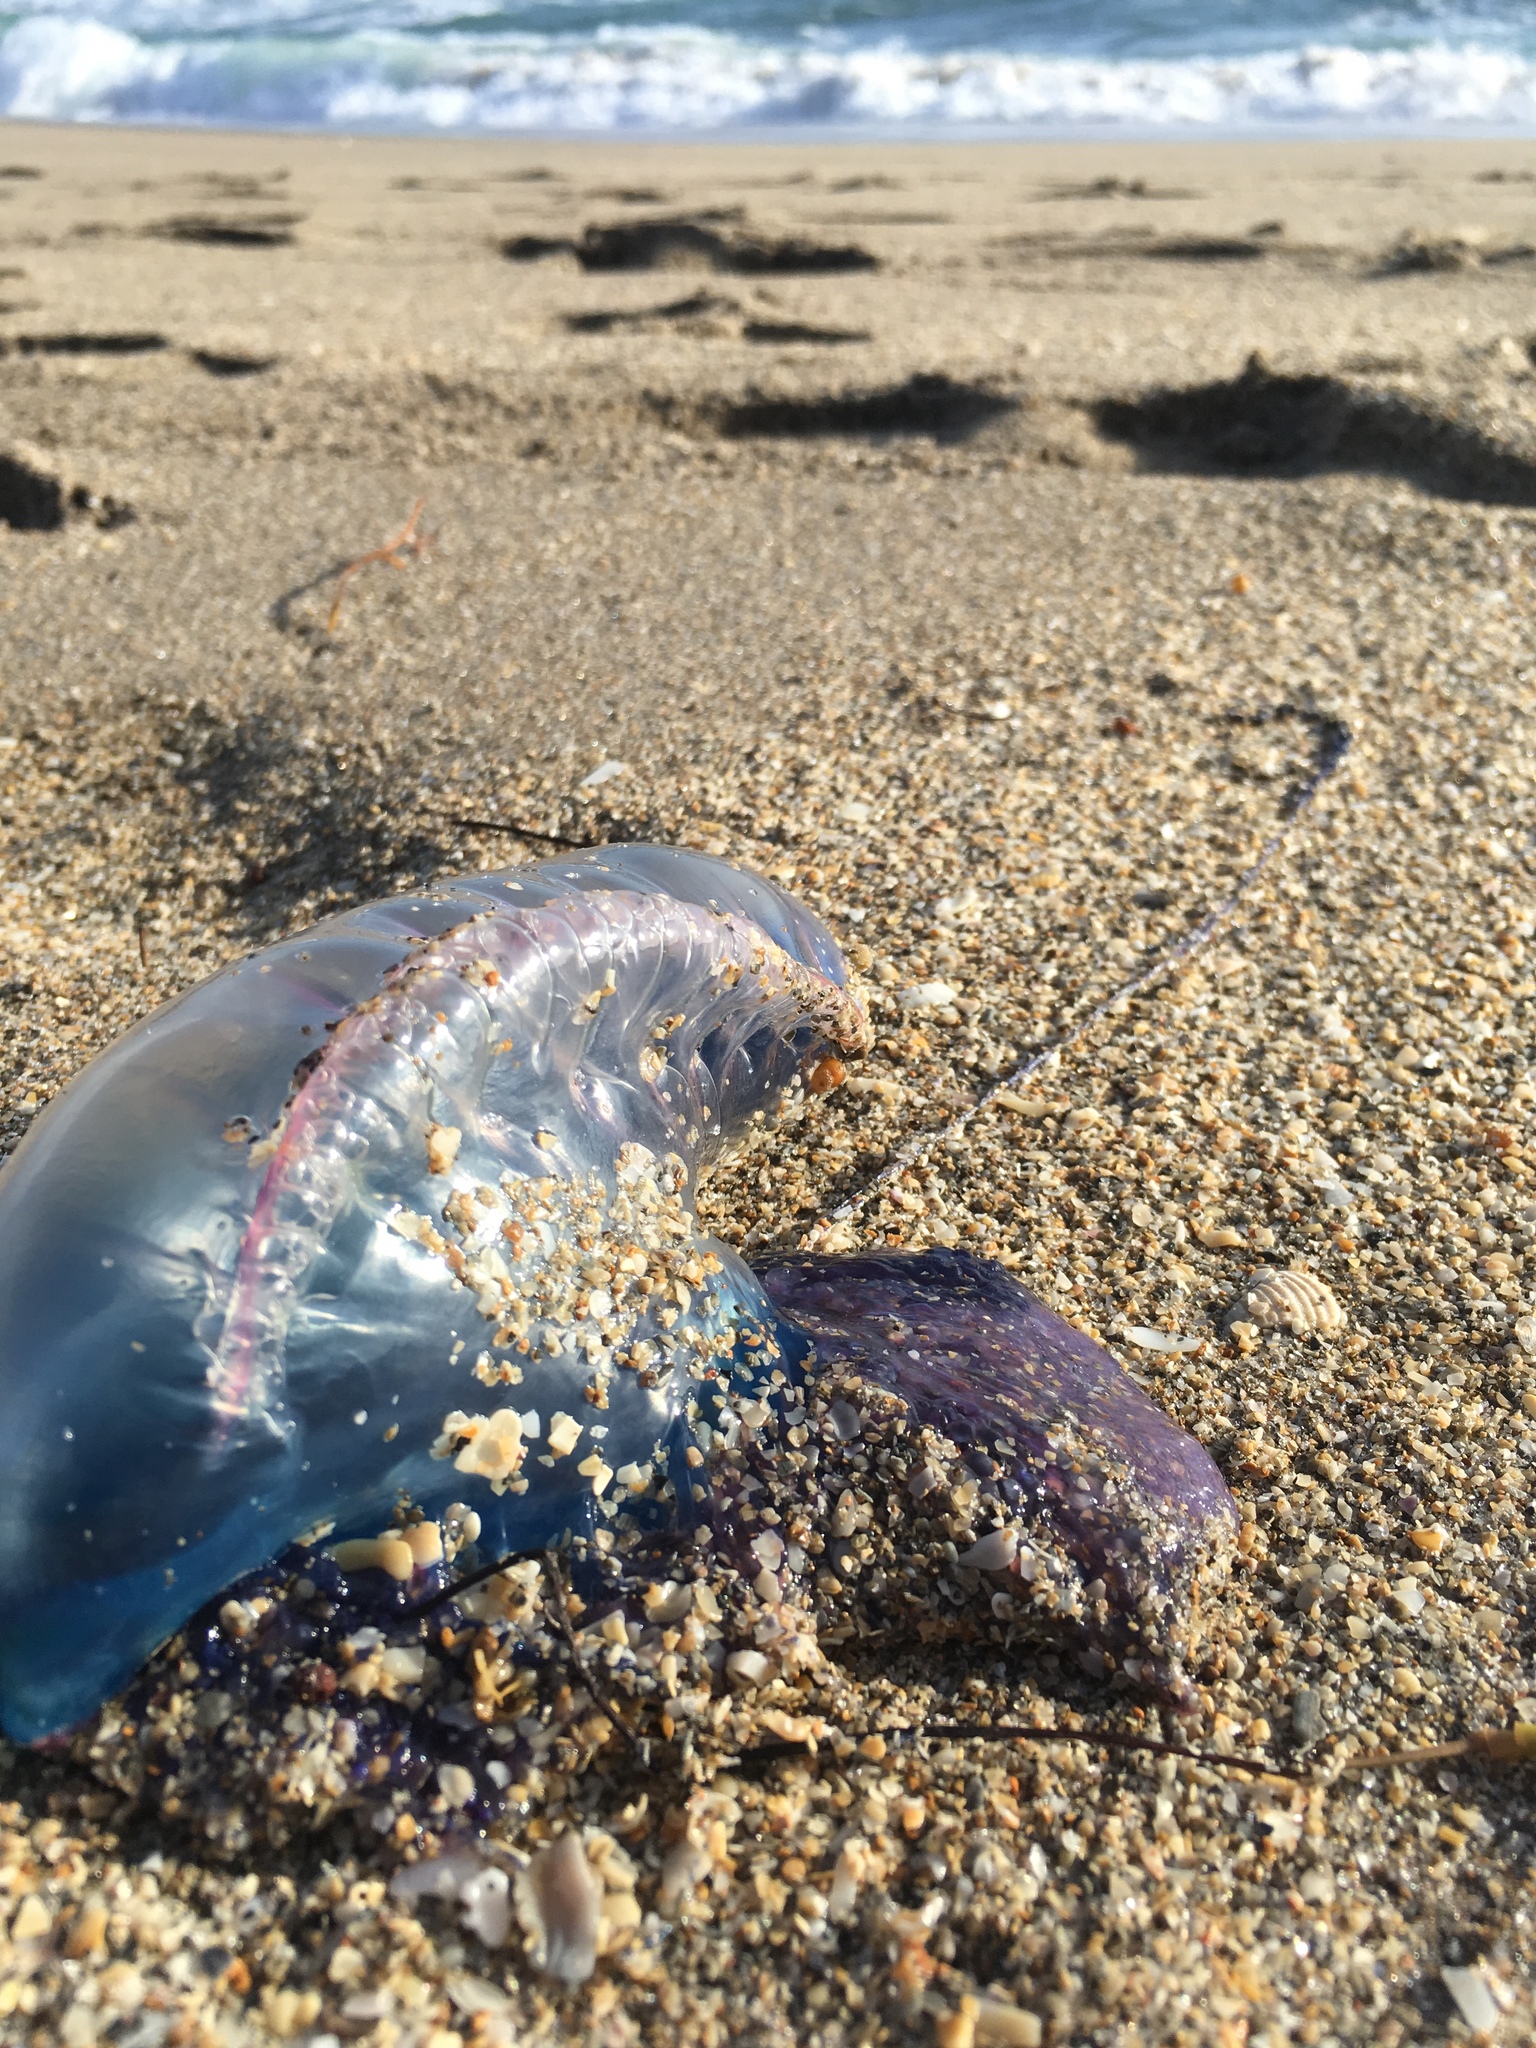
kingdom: Animalia
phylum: Cnidaria
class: Hydrozoa
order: Siphonophorae
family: Physaliidae
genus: Physalia
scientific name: Physalia physalis
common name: Portuguese man-of-war
